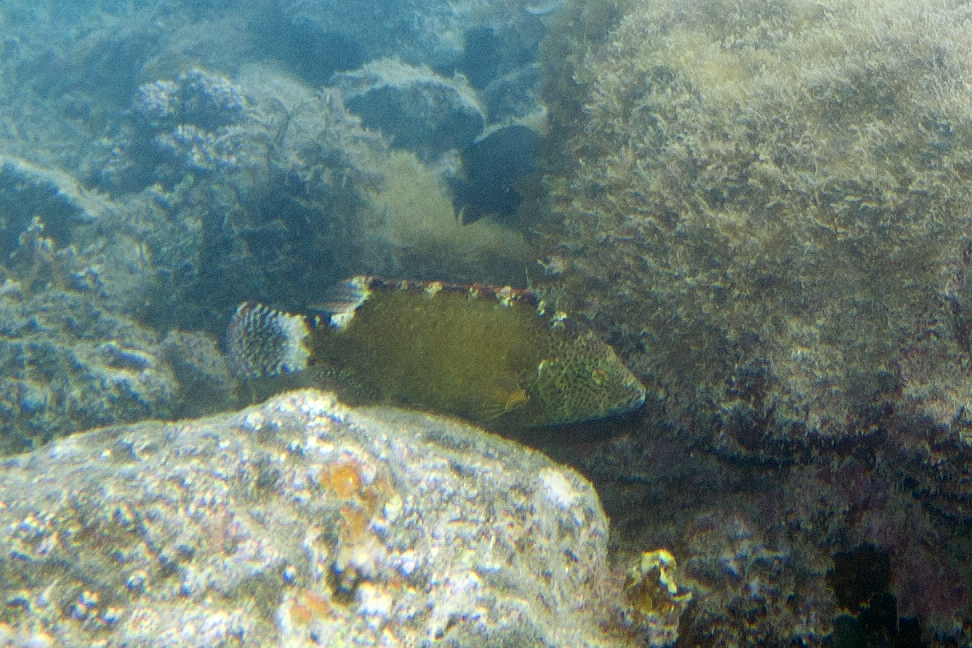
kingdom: Animalia
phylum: Chordata
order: Perciformes
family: Labridae
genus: Cheilinus
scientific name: Cheilinus chlorourus
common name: Floral wrasse
